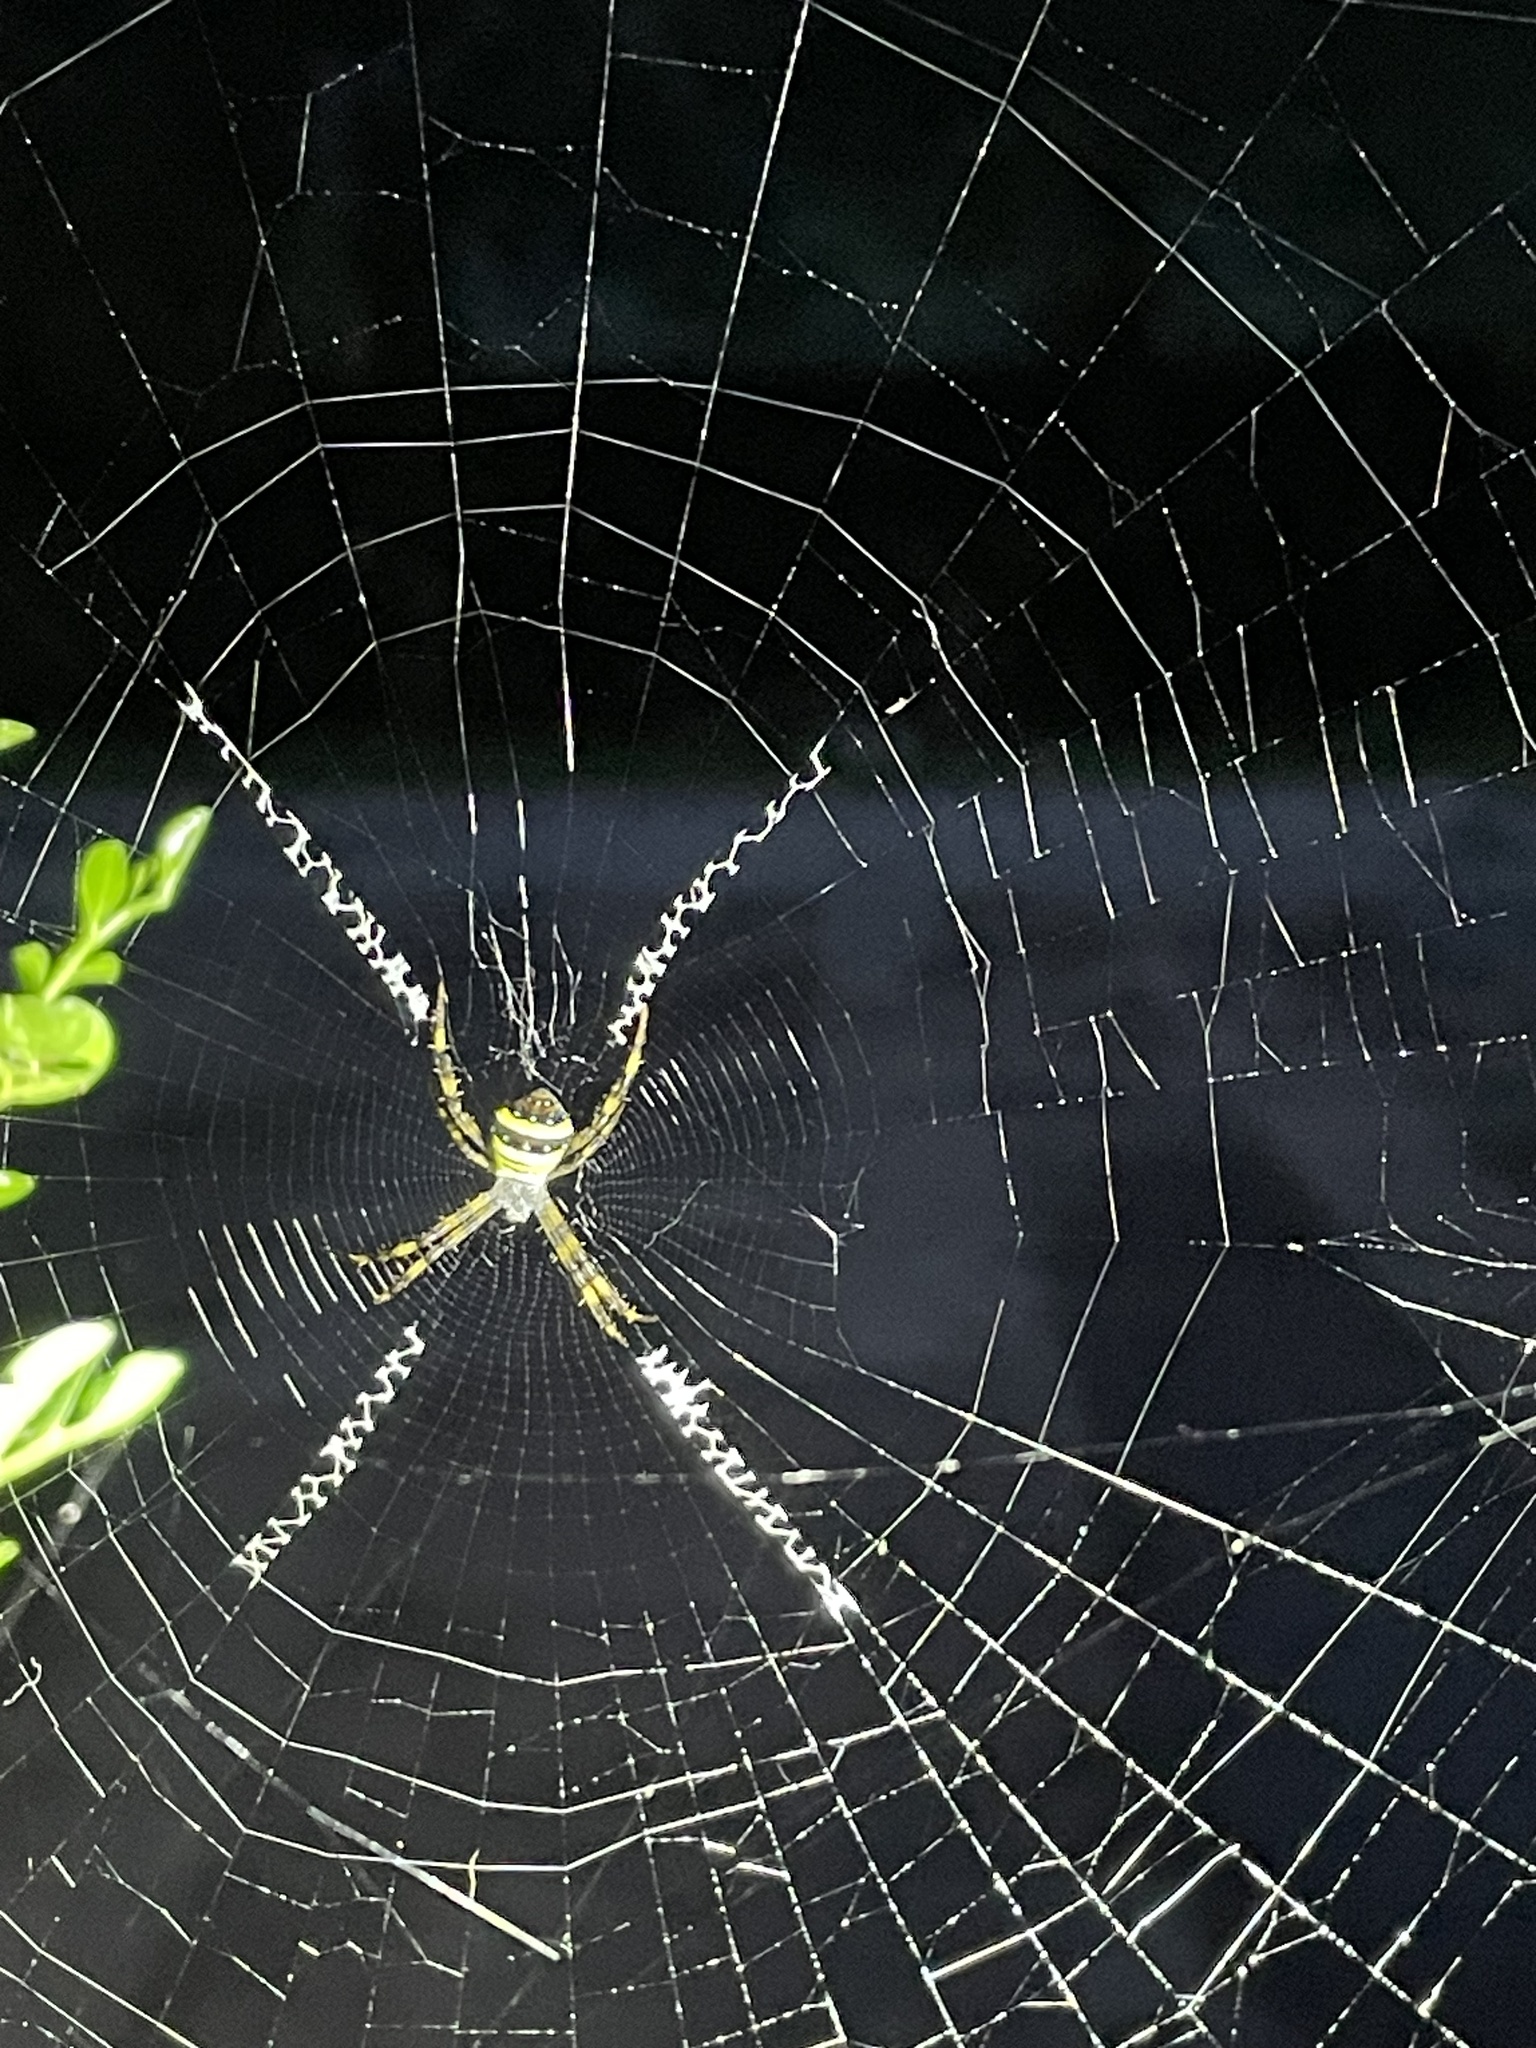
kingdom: Animalia
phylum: Arthropoda
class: Arachnida
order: Araneae
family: Araneidae
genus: Argiope
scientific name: Argiope
